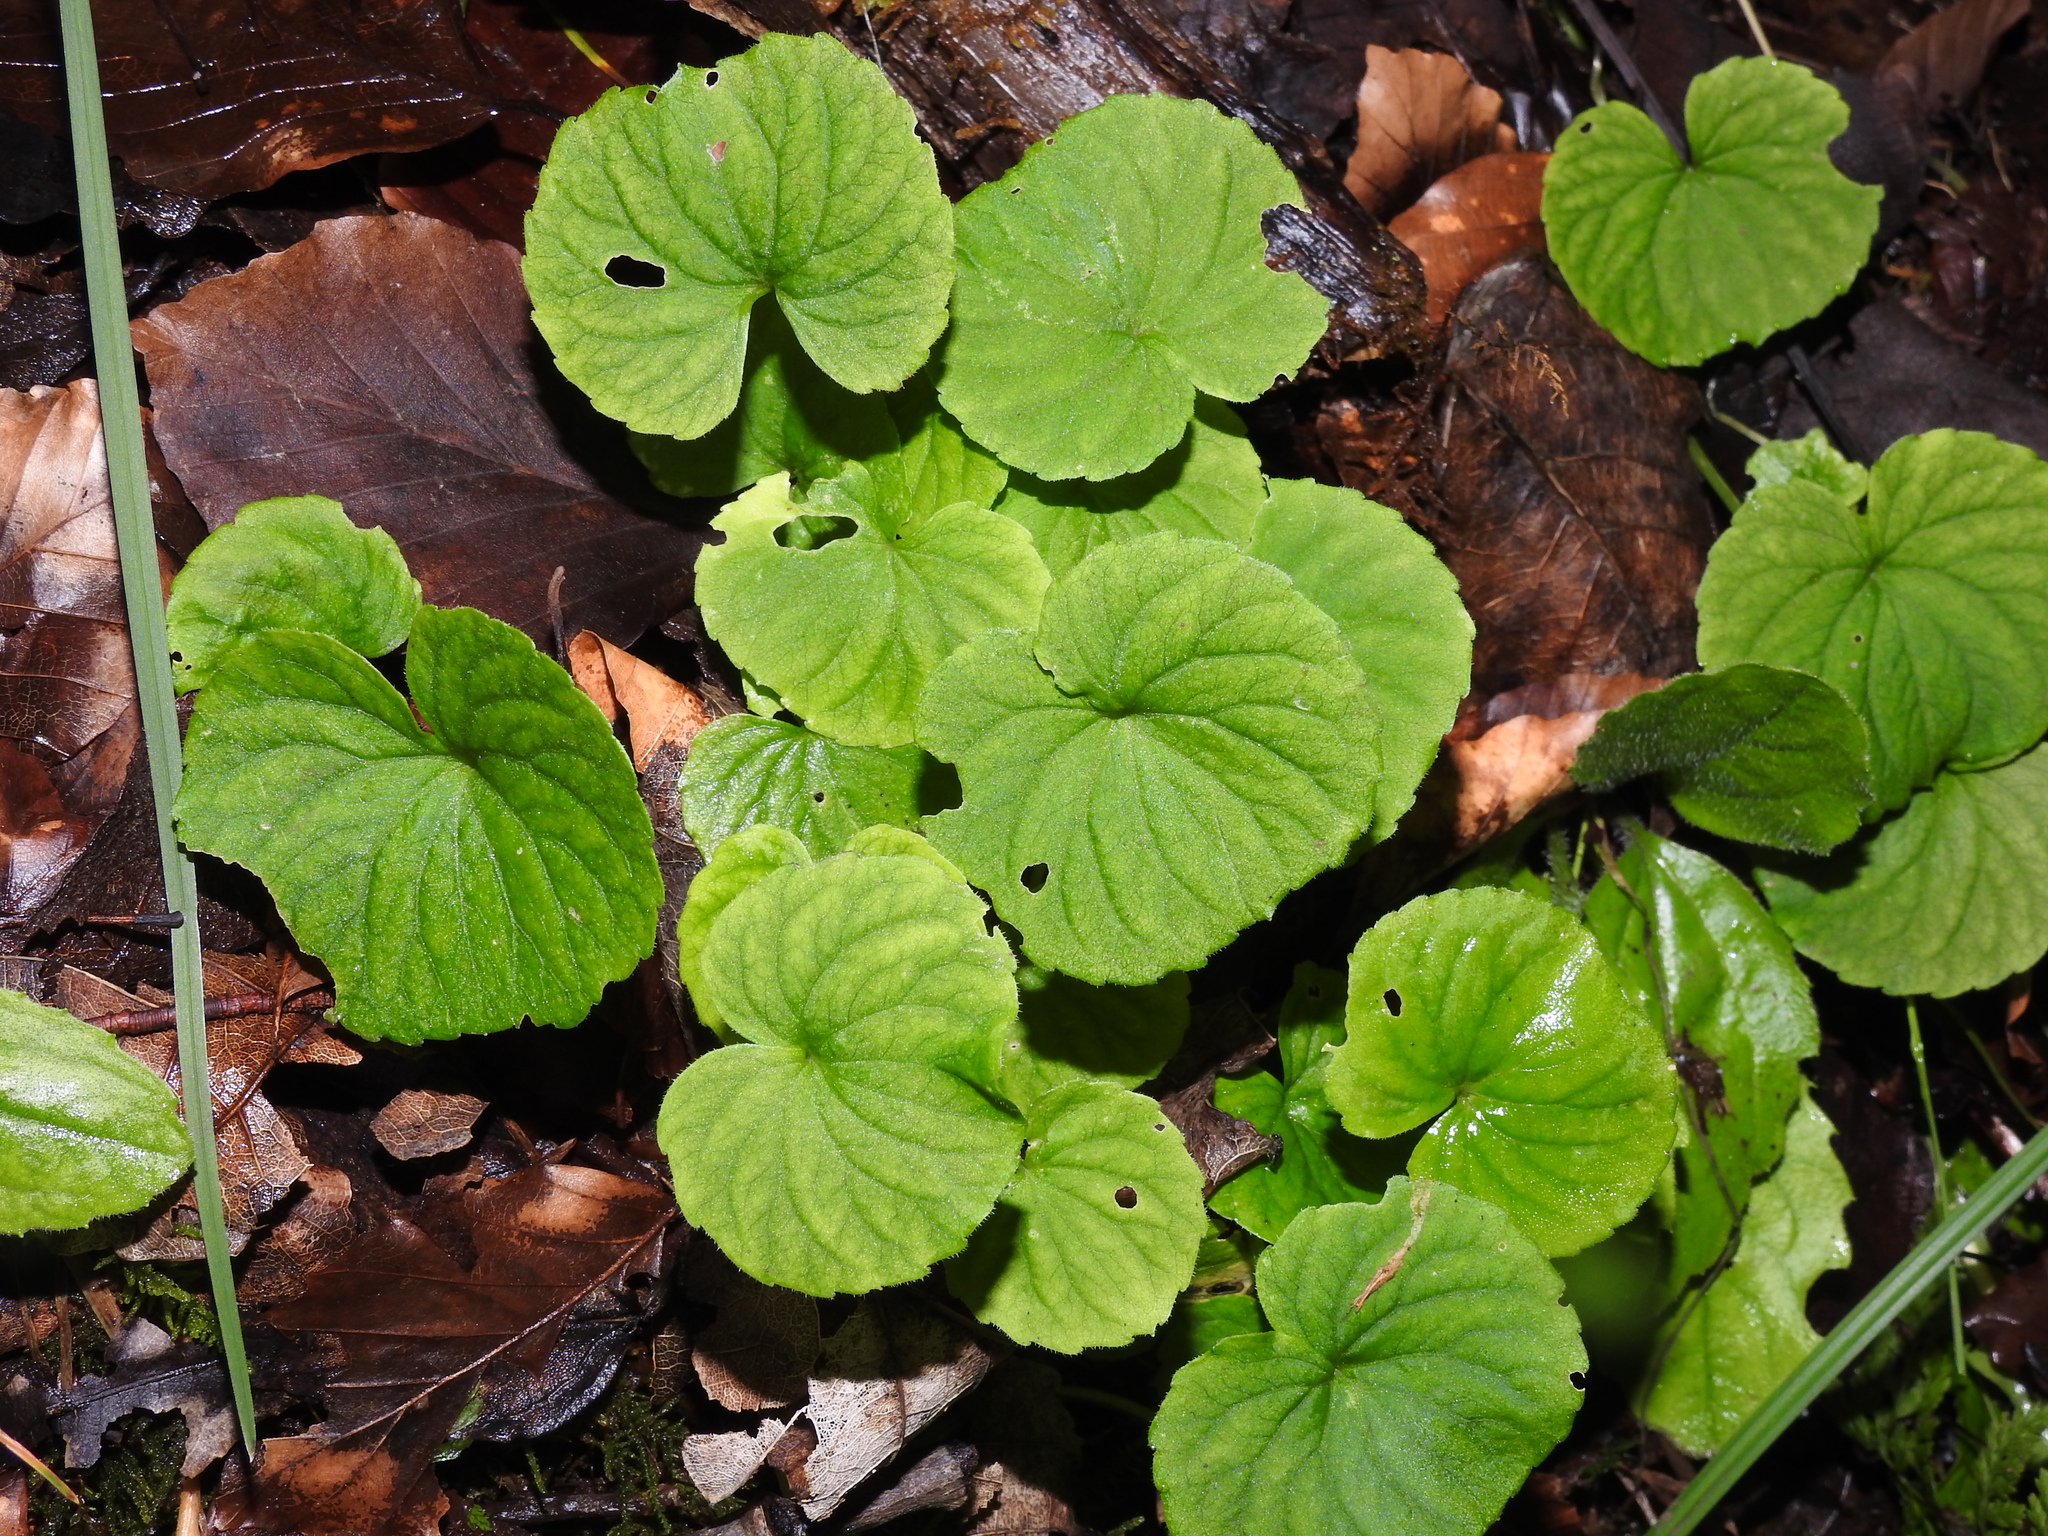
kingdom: Plantae
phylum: Tracheophyta
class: Magnoliopsida
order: Malpighiales
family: Violaceae
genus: Viola
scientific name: Viola biflora
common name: Alpine yellow violet
